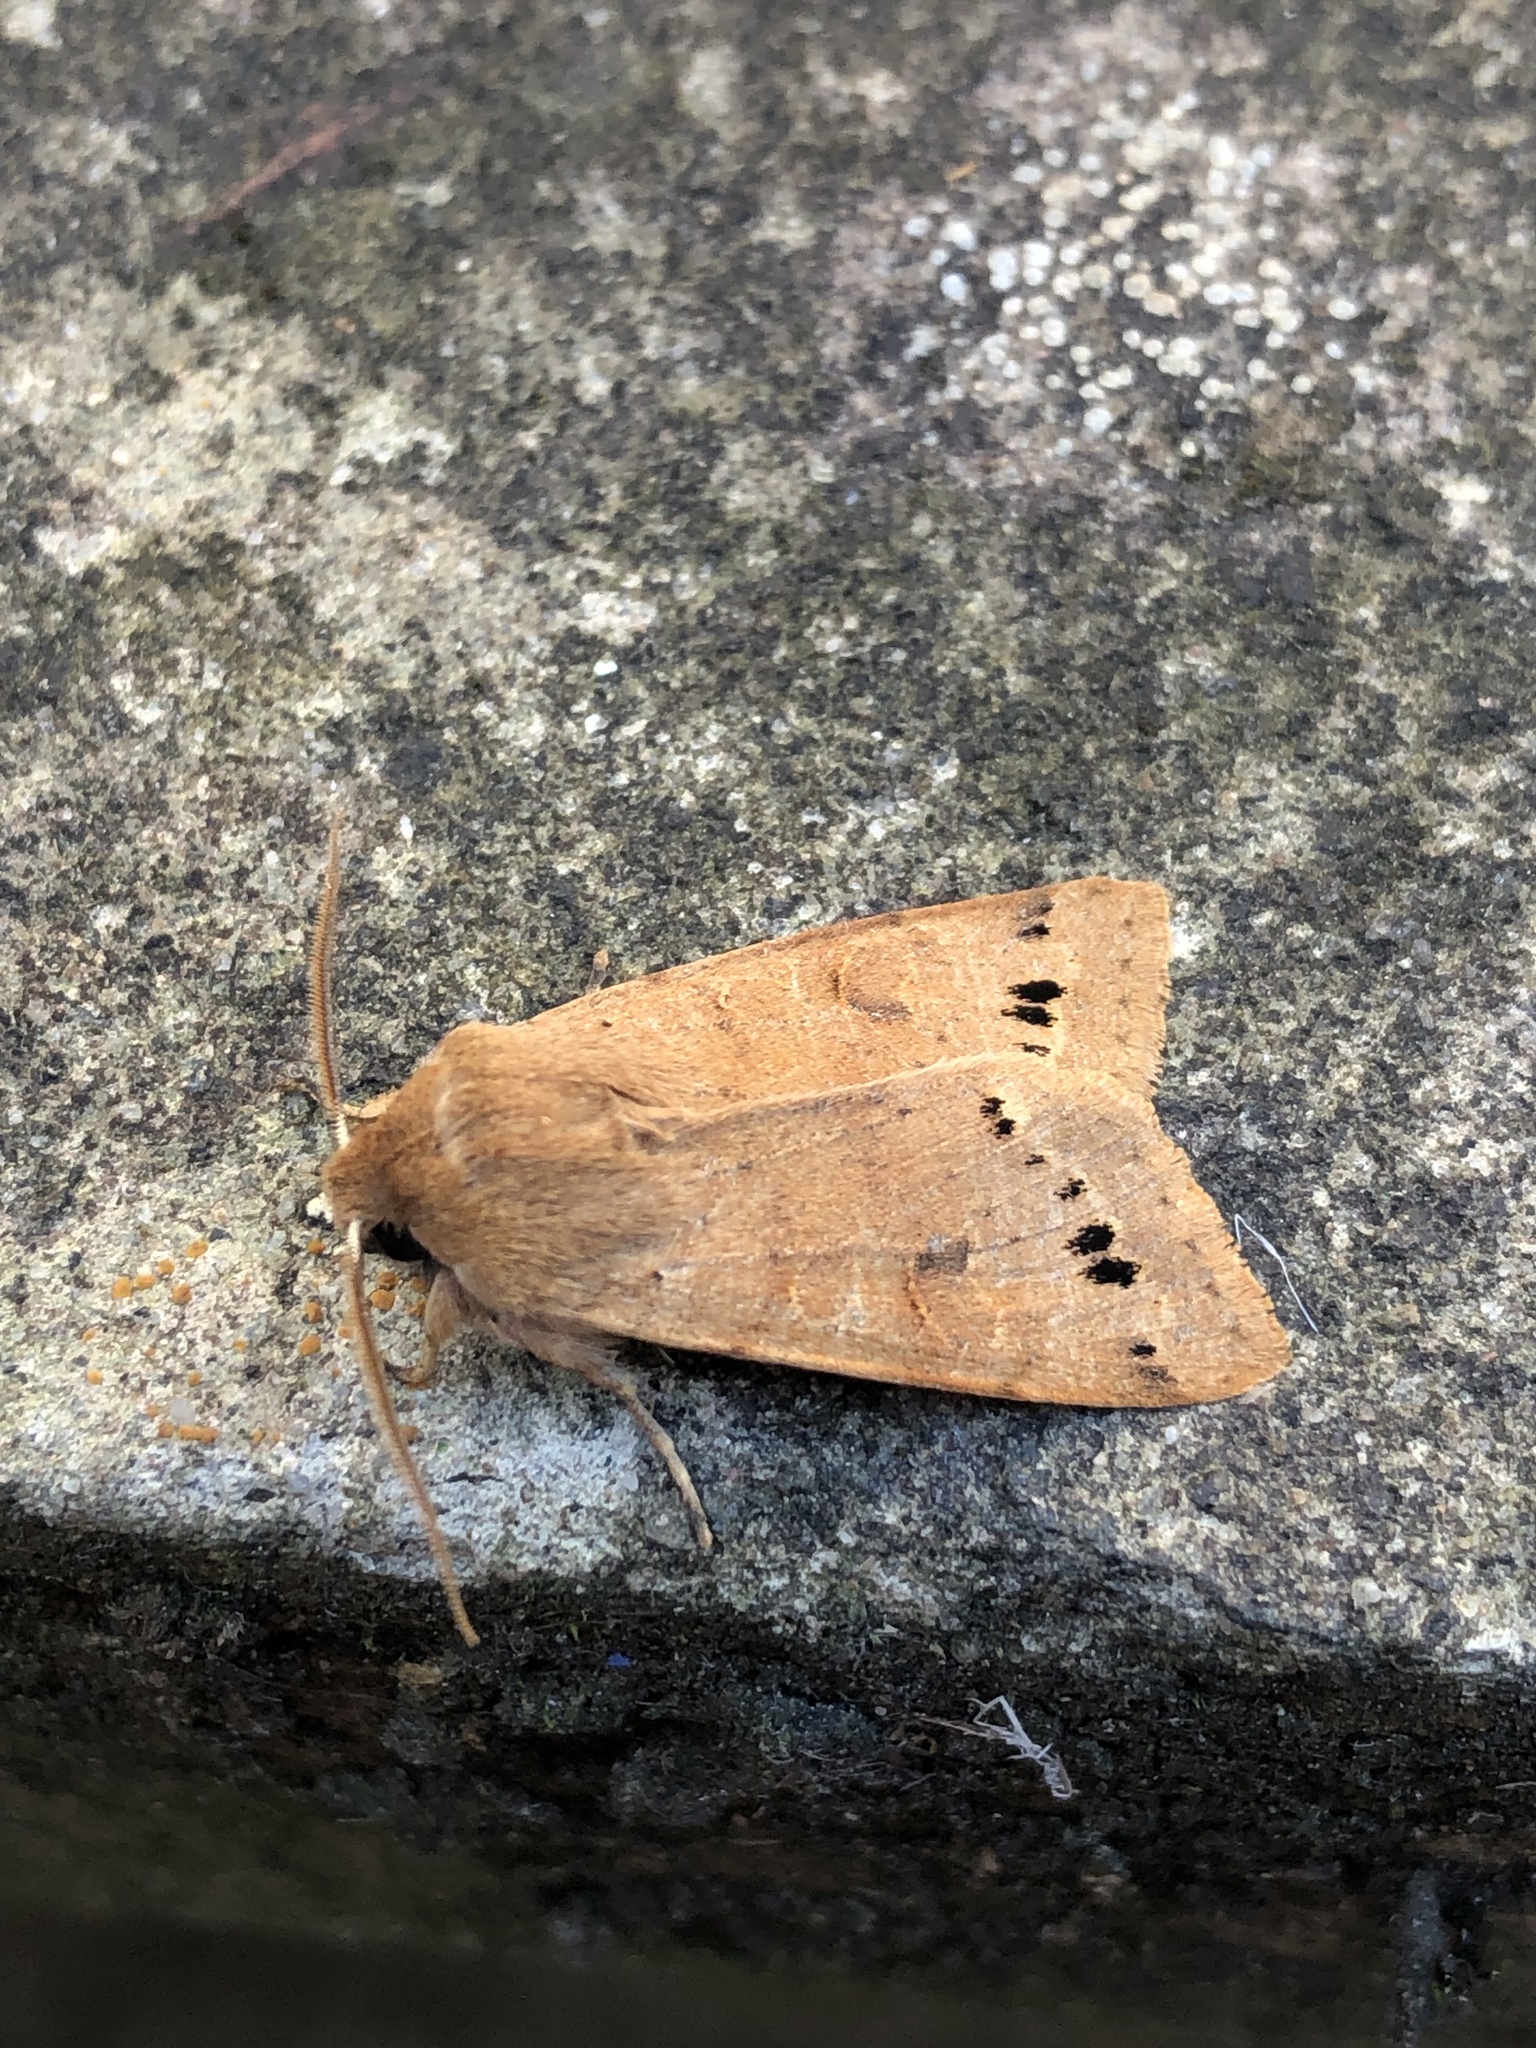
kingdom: Animalia
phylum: Arthropoda
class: Insecta
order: Lepidoptera
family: Noctuidae
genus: Anorthoa
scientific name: Anorthoa munda
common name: Twin-spotted quaker
